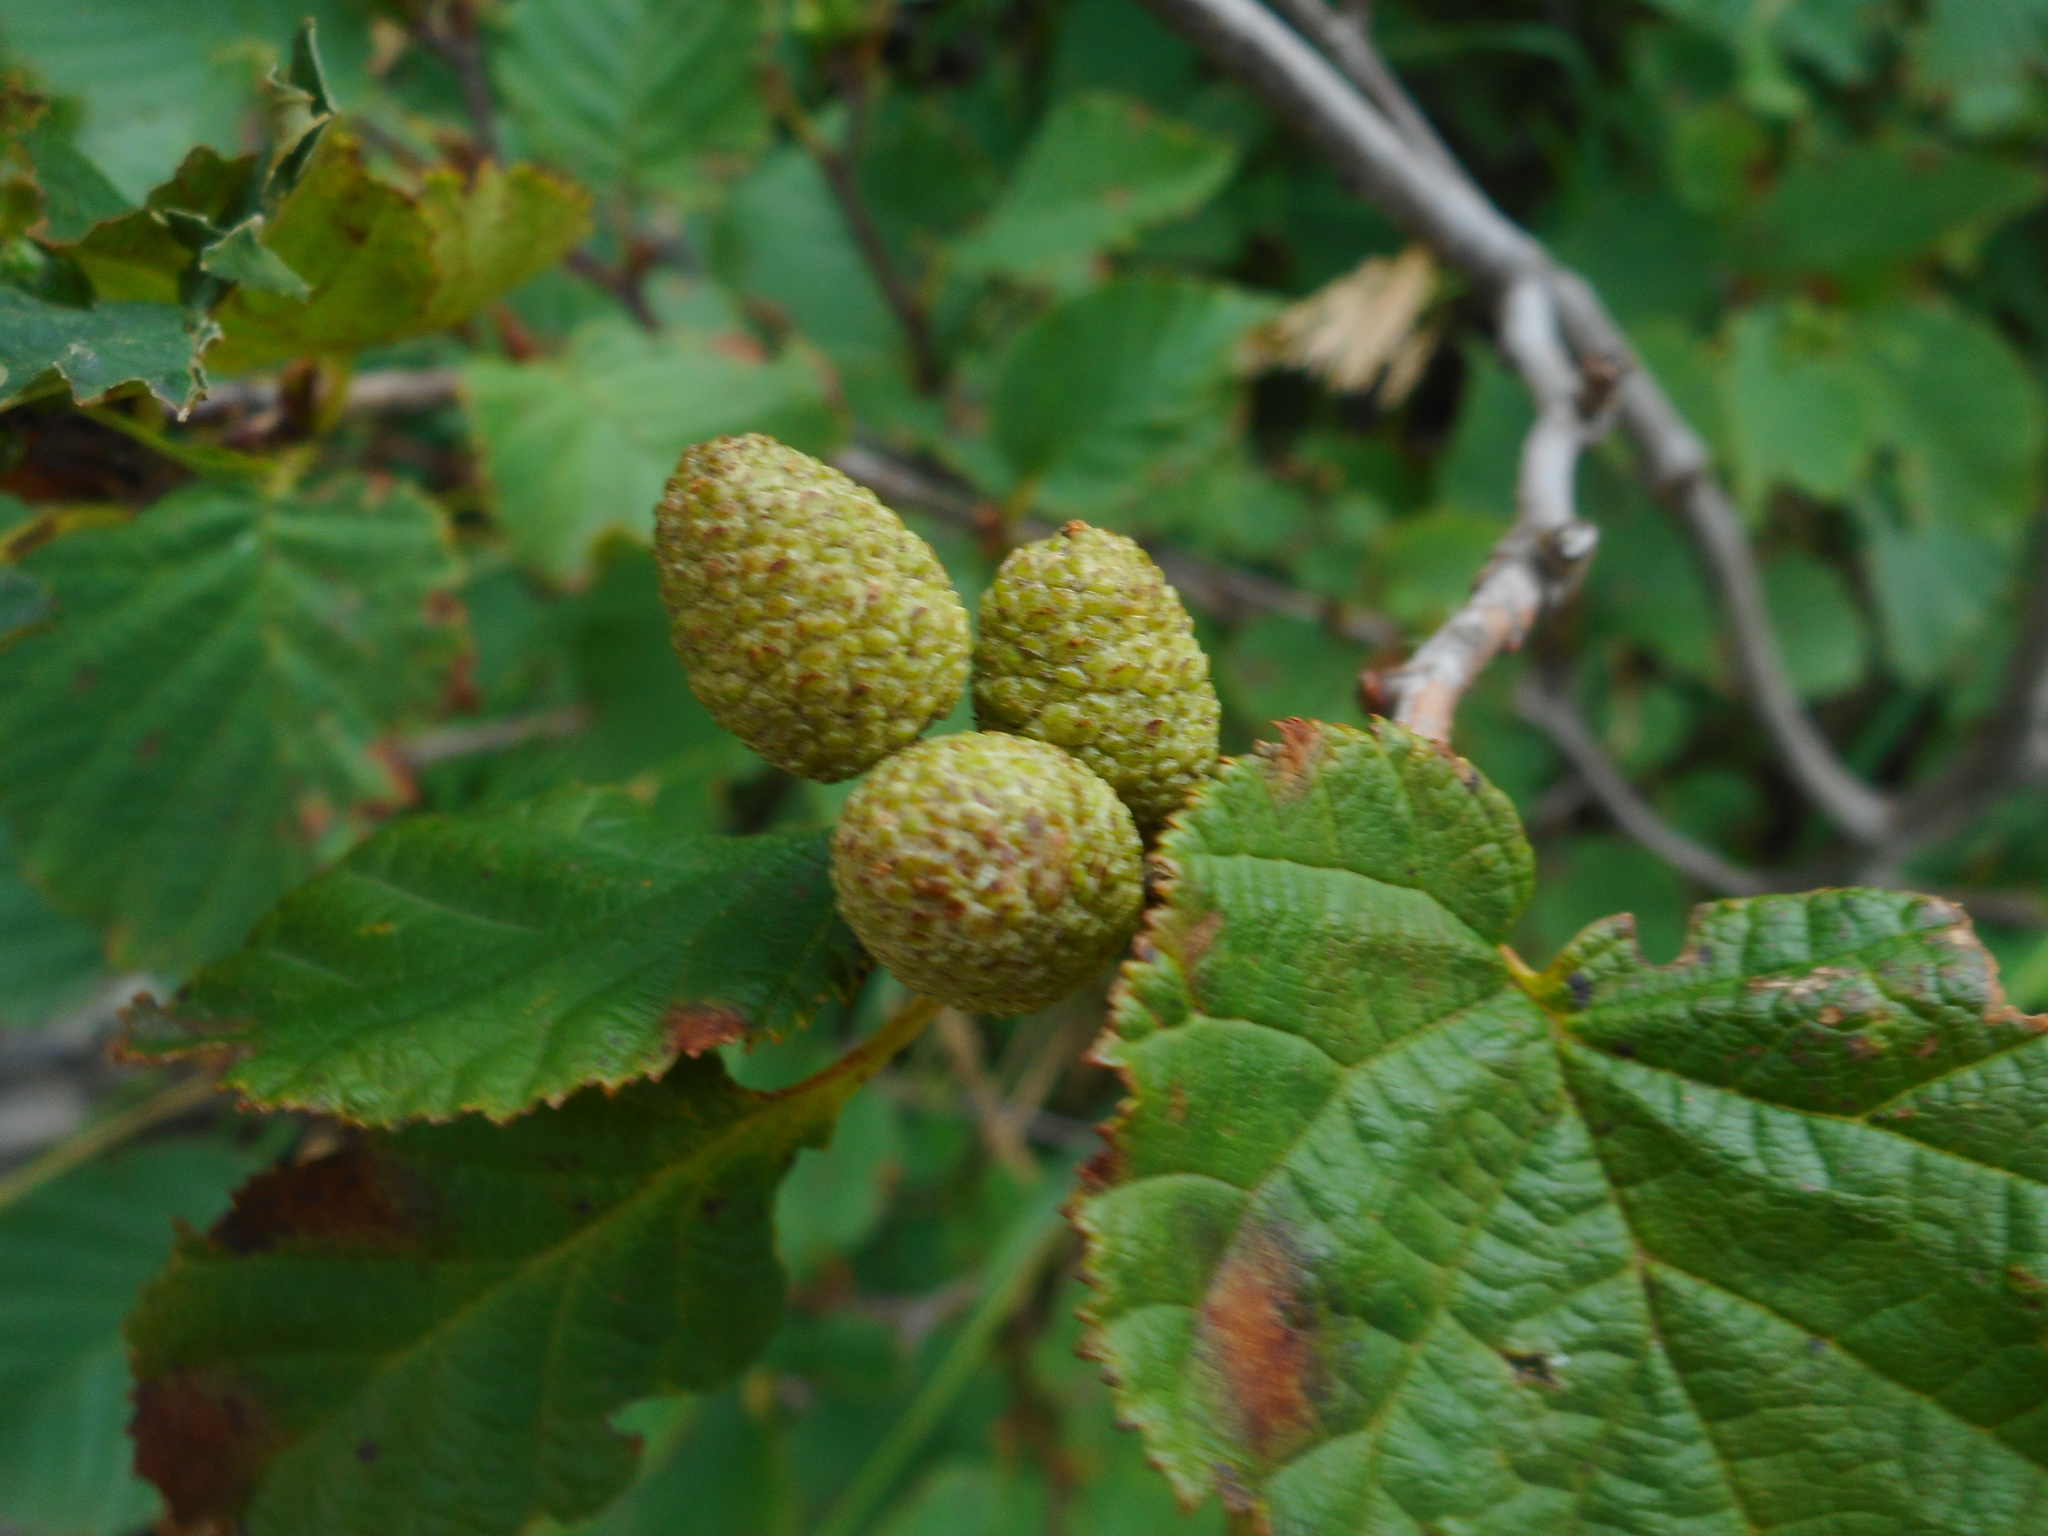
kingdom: Plantae
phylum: Tracheophyta
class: Magnoliopsida
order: Fagales
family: Betulaceae
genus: Alnus
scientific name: Alnus mandschurica
